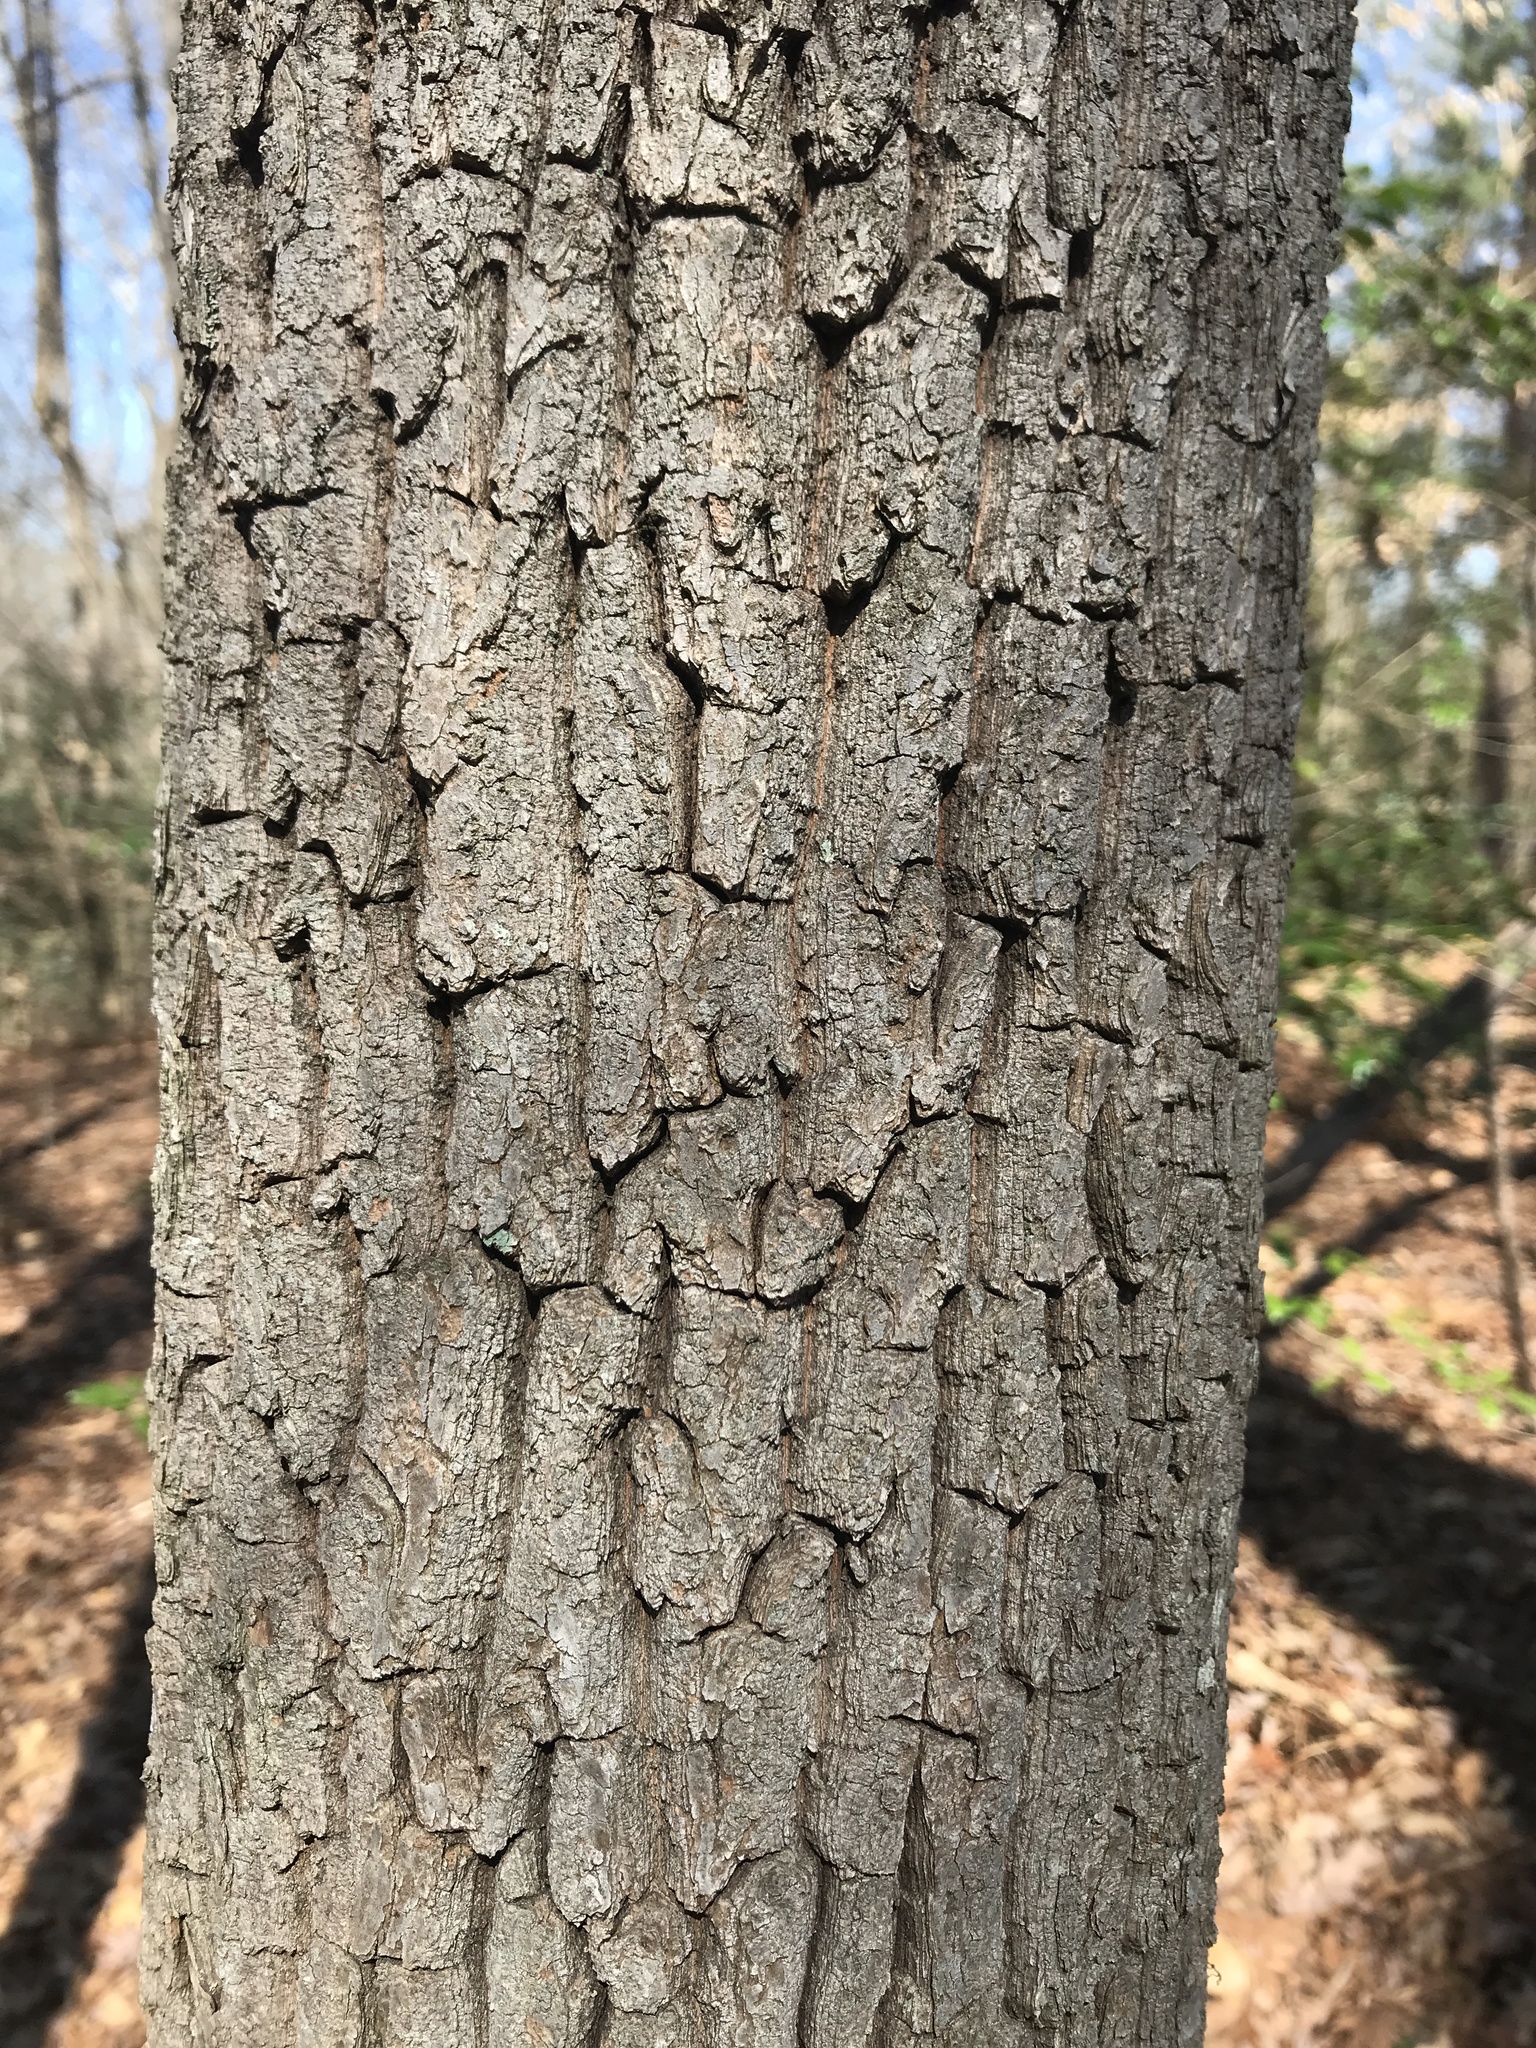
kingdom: Plantae
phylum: Tracheophyta
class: Magnoliopsida
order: Ericales
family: Ericaceae
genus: Oxydendrum
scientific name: Oxydendrum arboreum
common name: Sourwood
